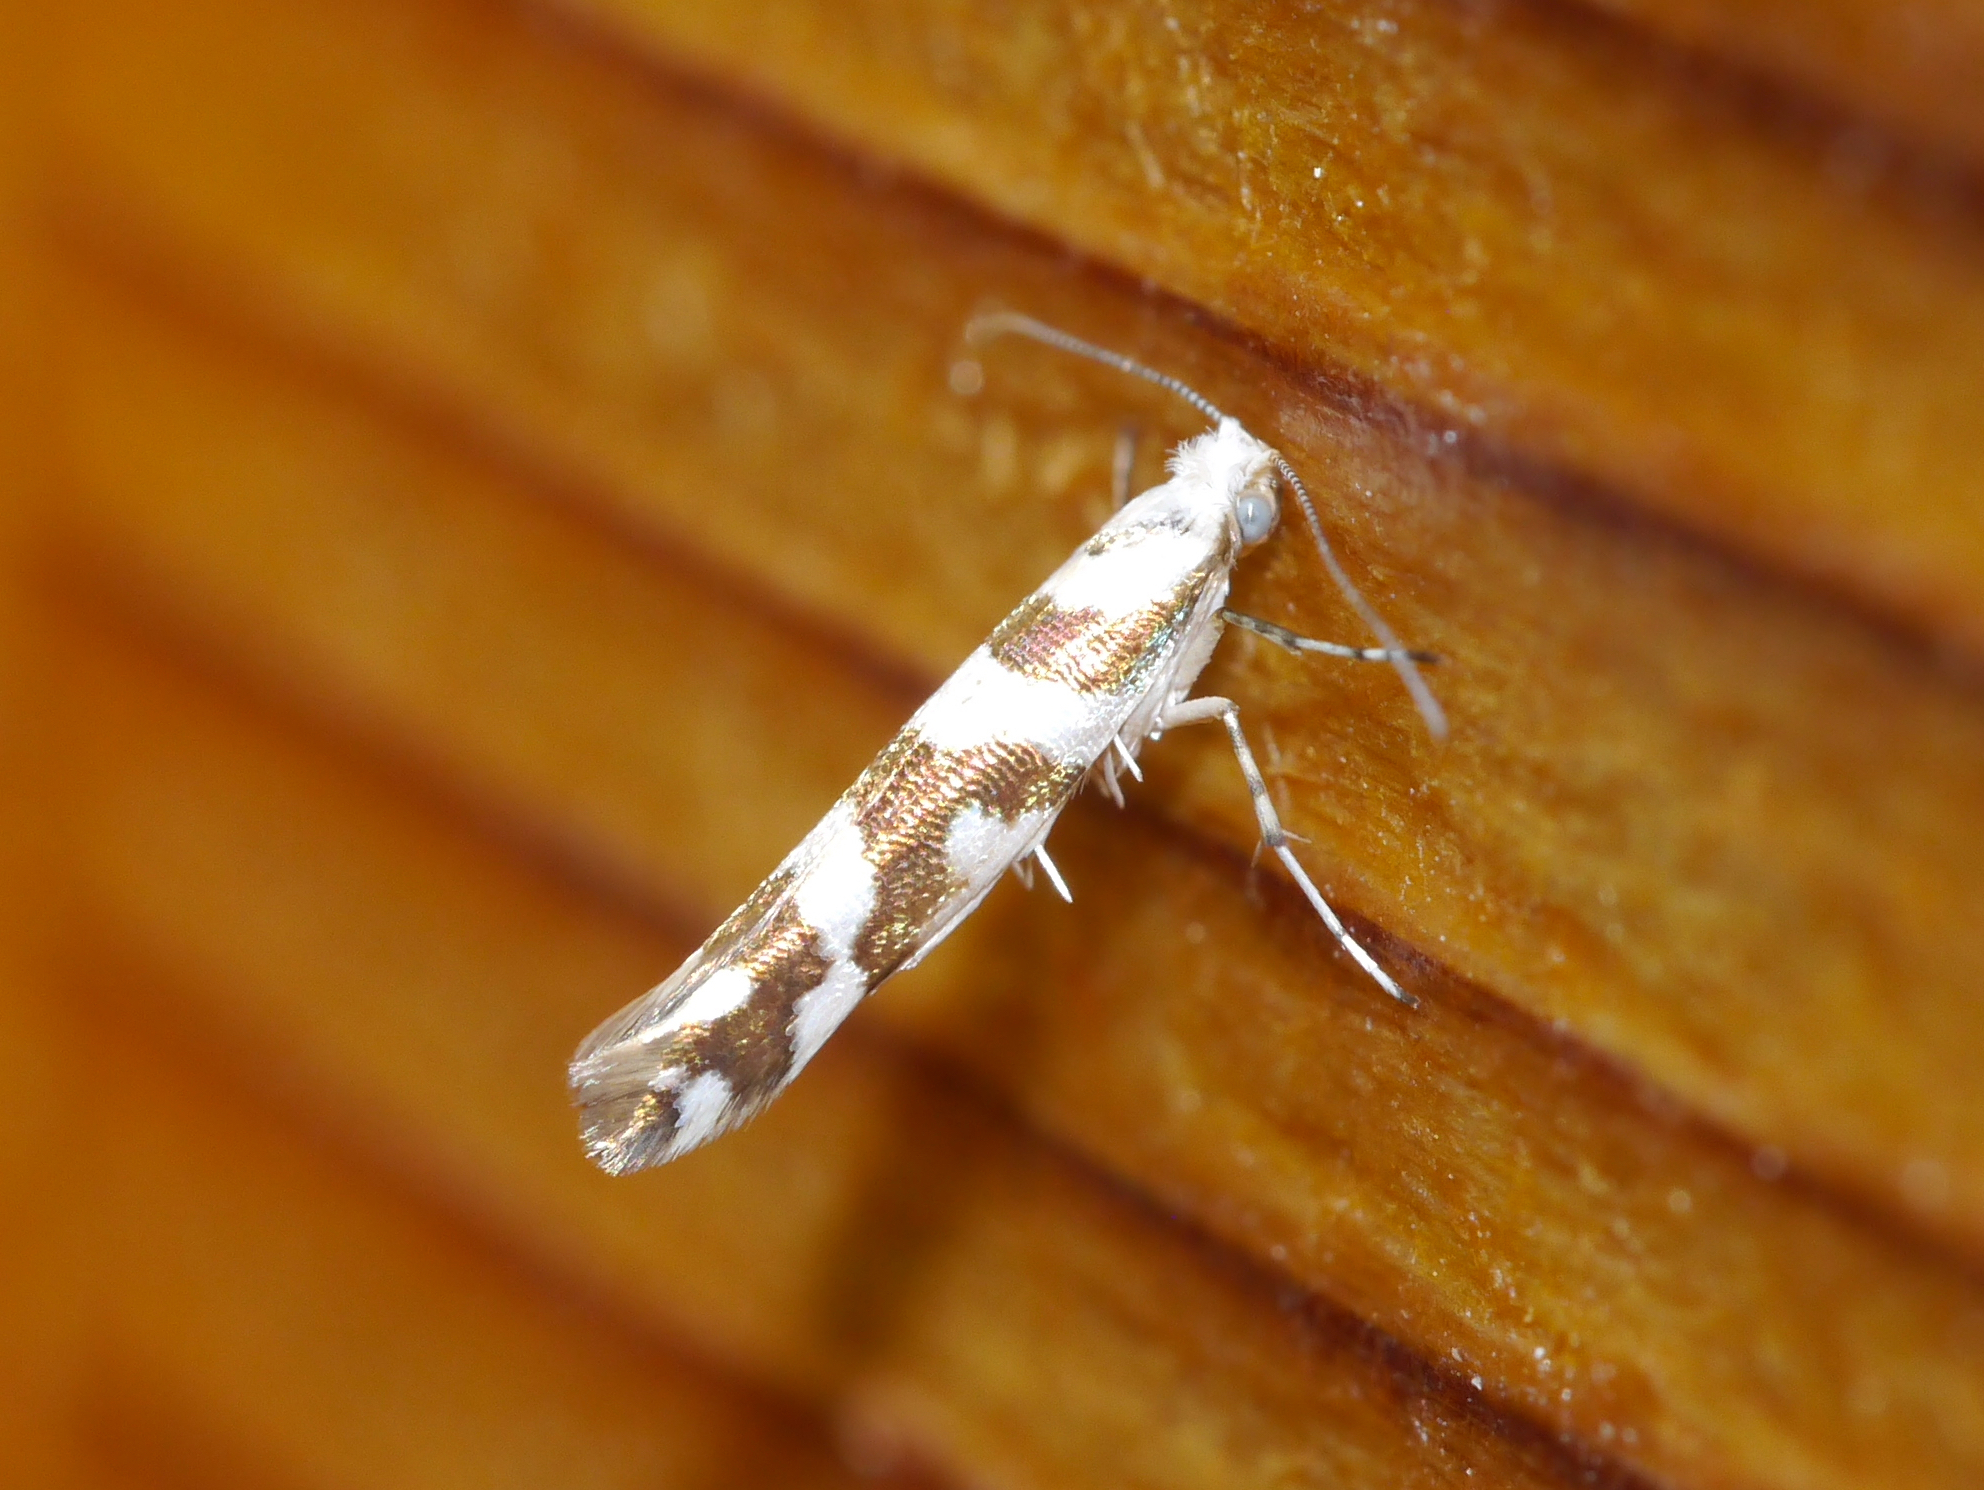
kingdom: Animalia
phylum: Arthropoda
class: Insecta
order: Lepidoptera
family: Argyresthiidae
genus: Argyresthia
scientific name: Argyresthia goedartella
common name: Golden argent
